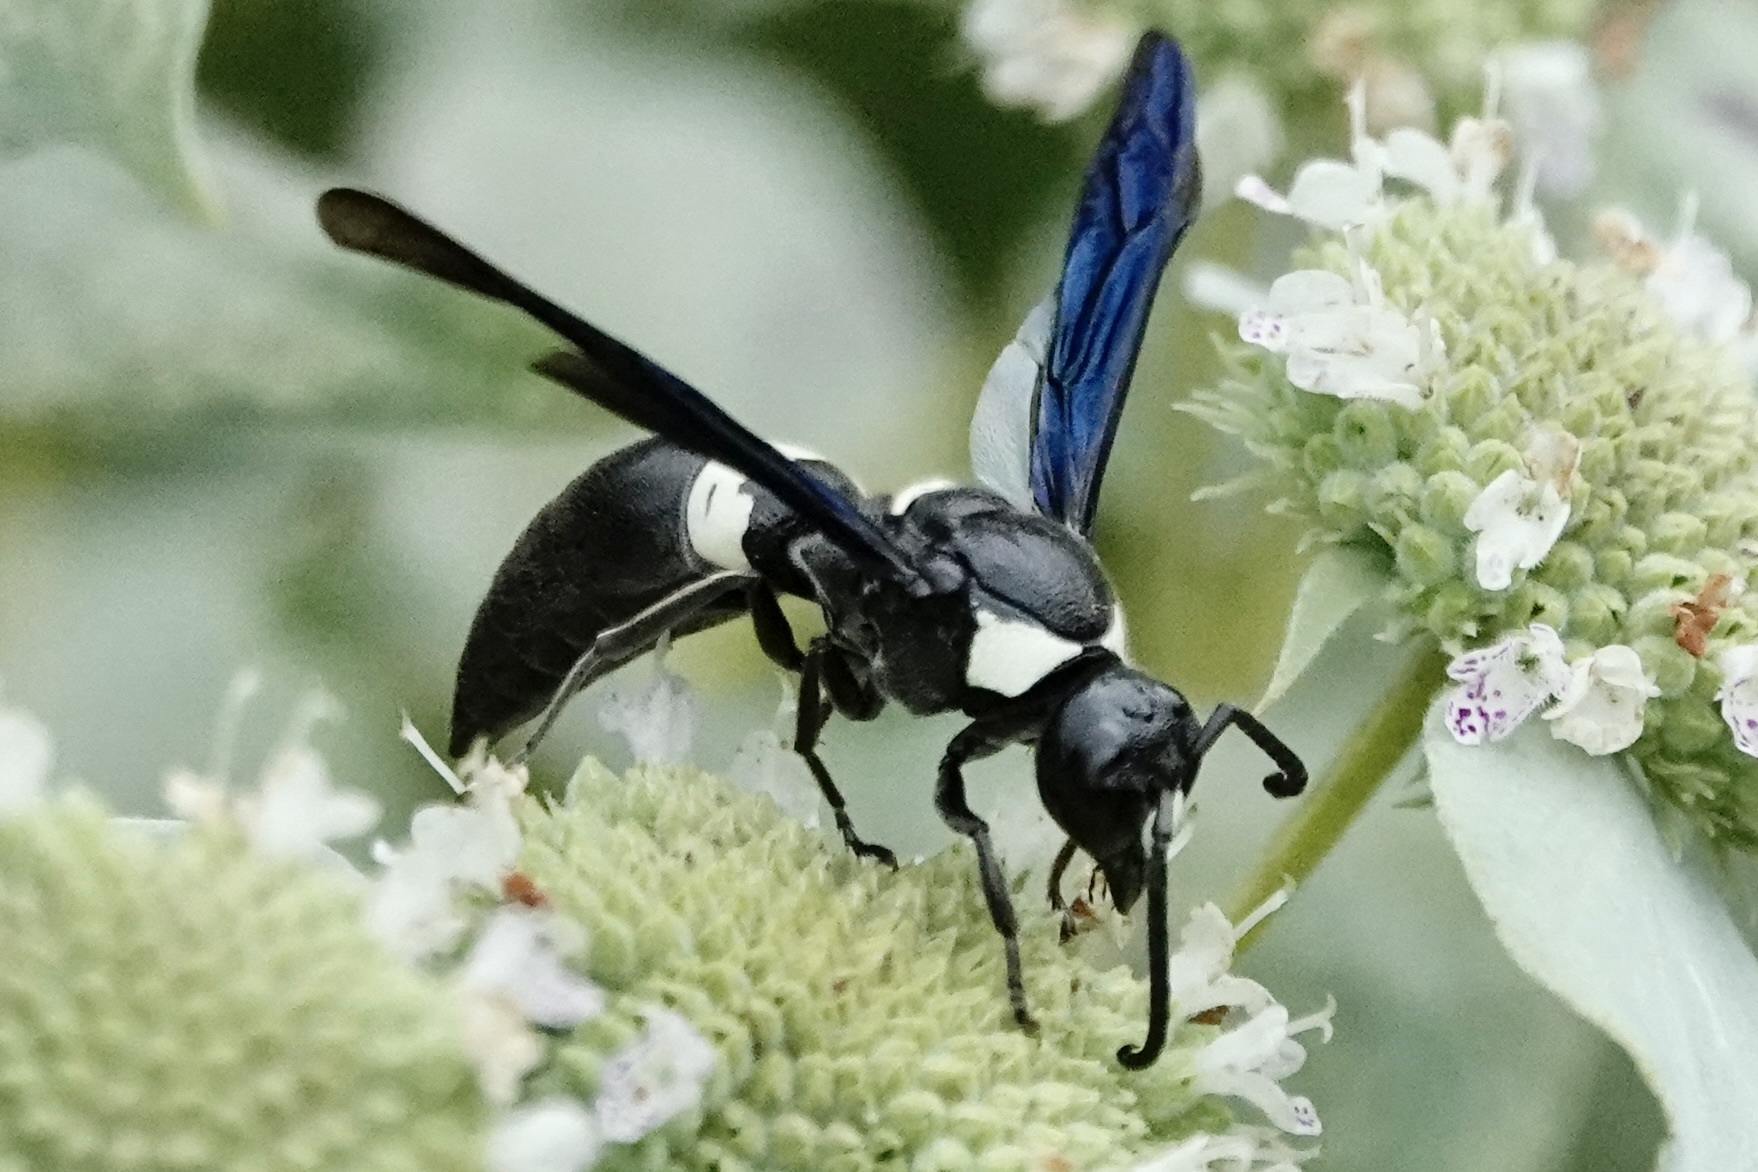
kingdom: Animalia
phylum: Arthropoda
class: Insecta
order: Hymenoptera
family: Eumenidae
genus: Monobia
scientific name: Monobia quadridens
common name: Four-toothed mason wasp
